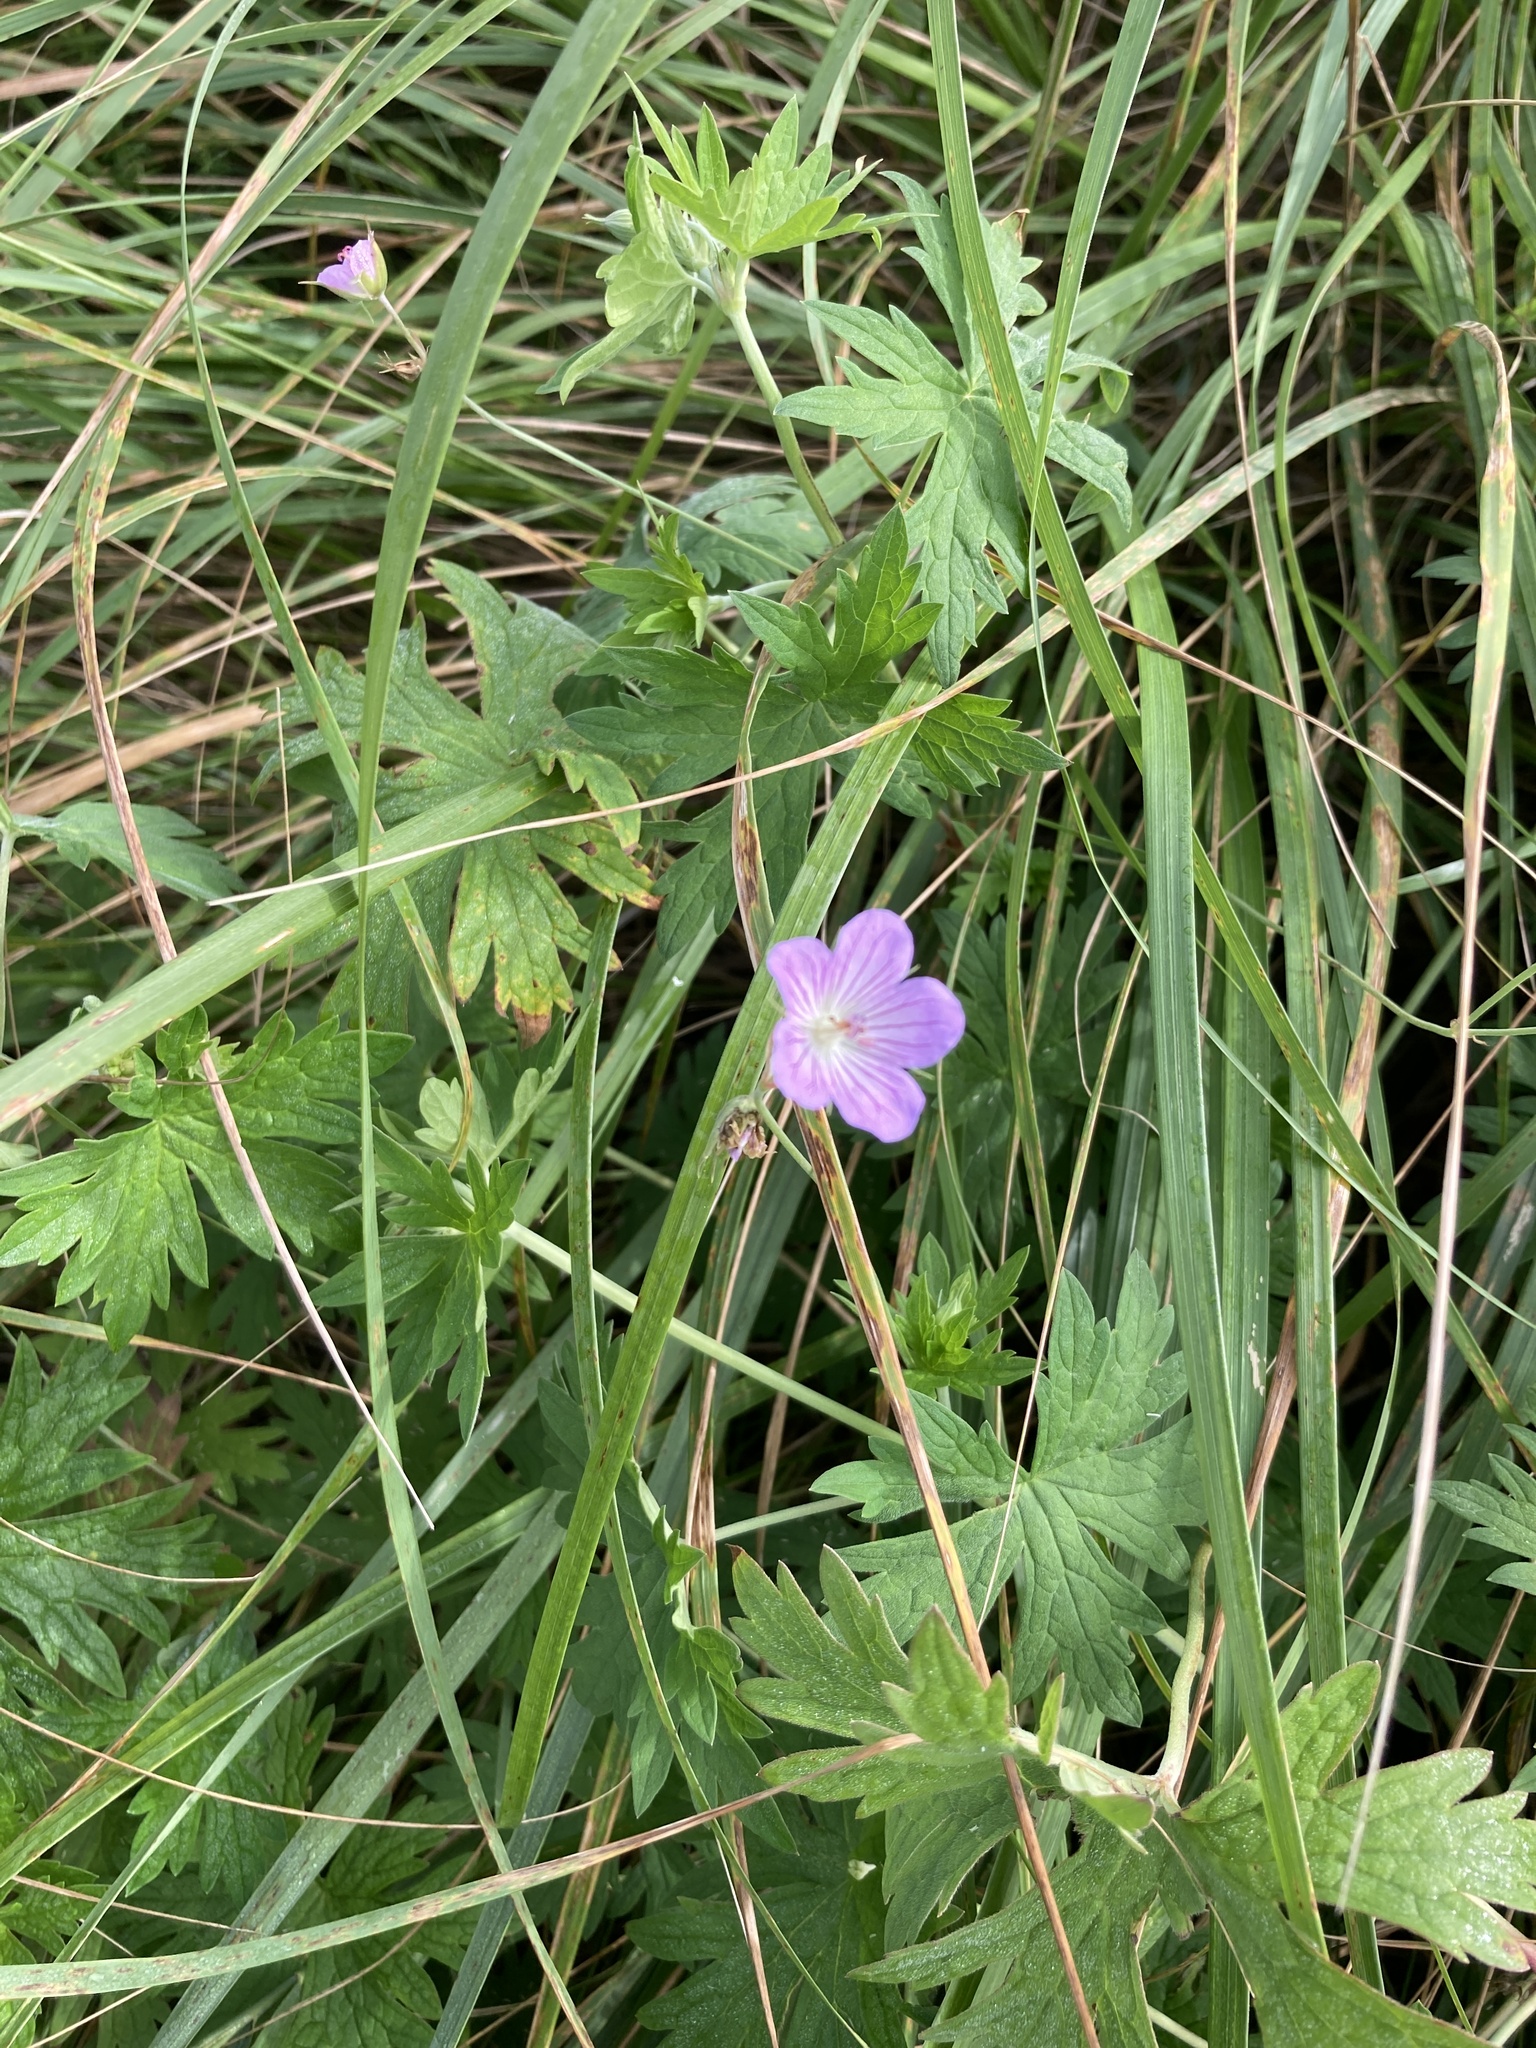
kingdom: Plantae
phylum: Tracheophyta
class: Magnoliopsida
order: Geraniales
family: Geraniaceae
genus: Geranium
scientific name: Geranium collinum
